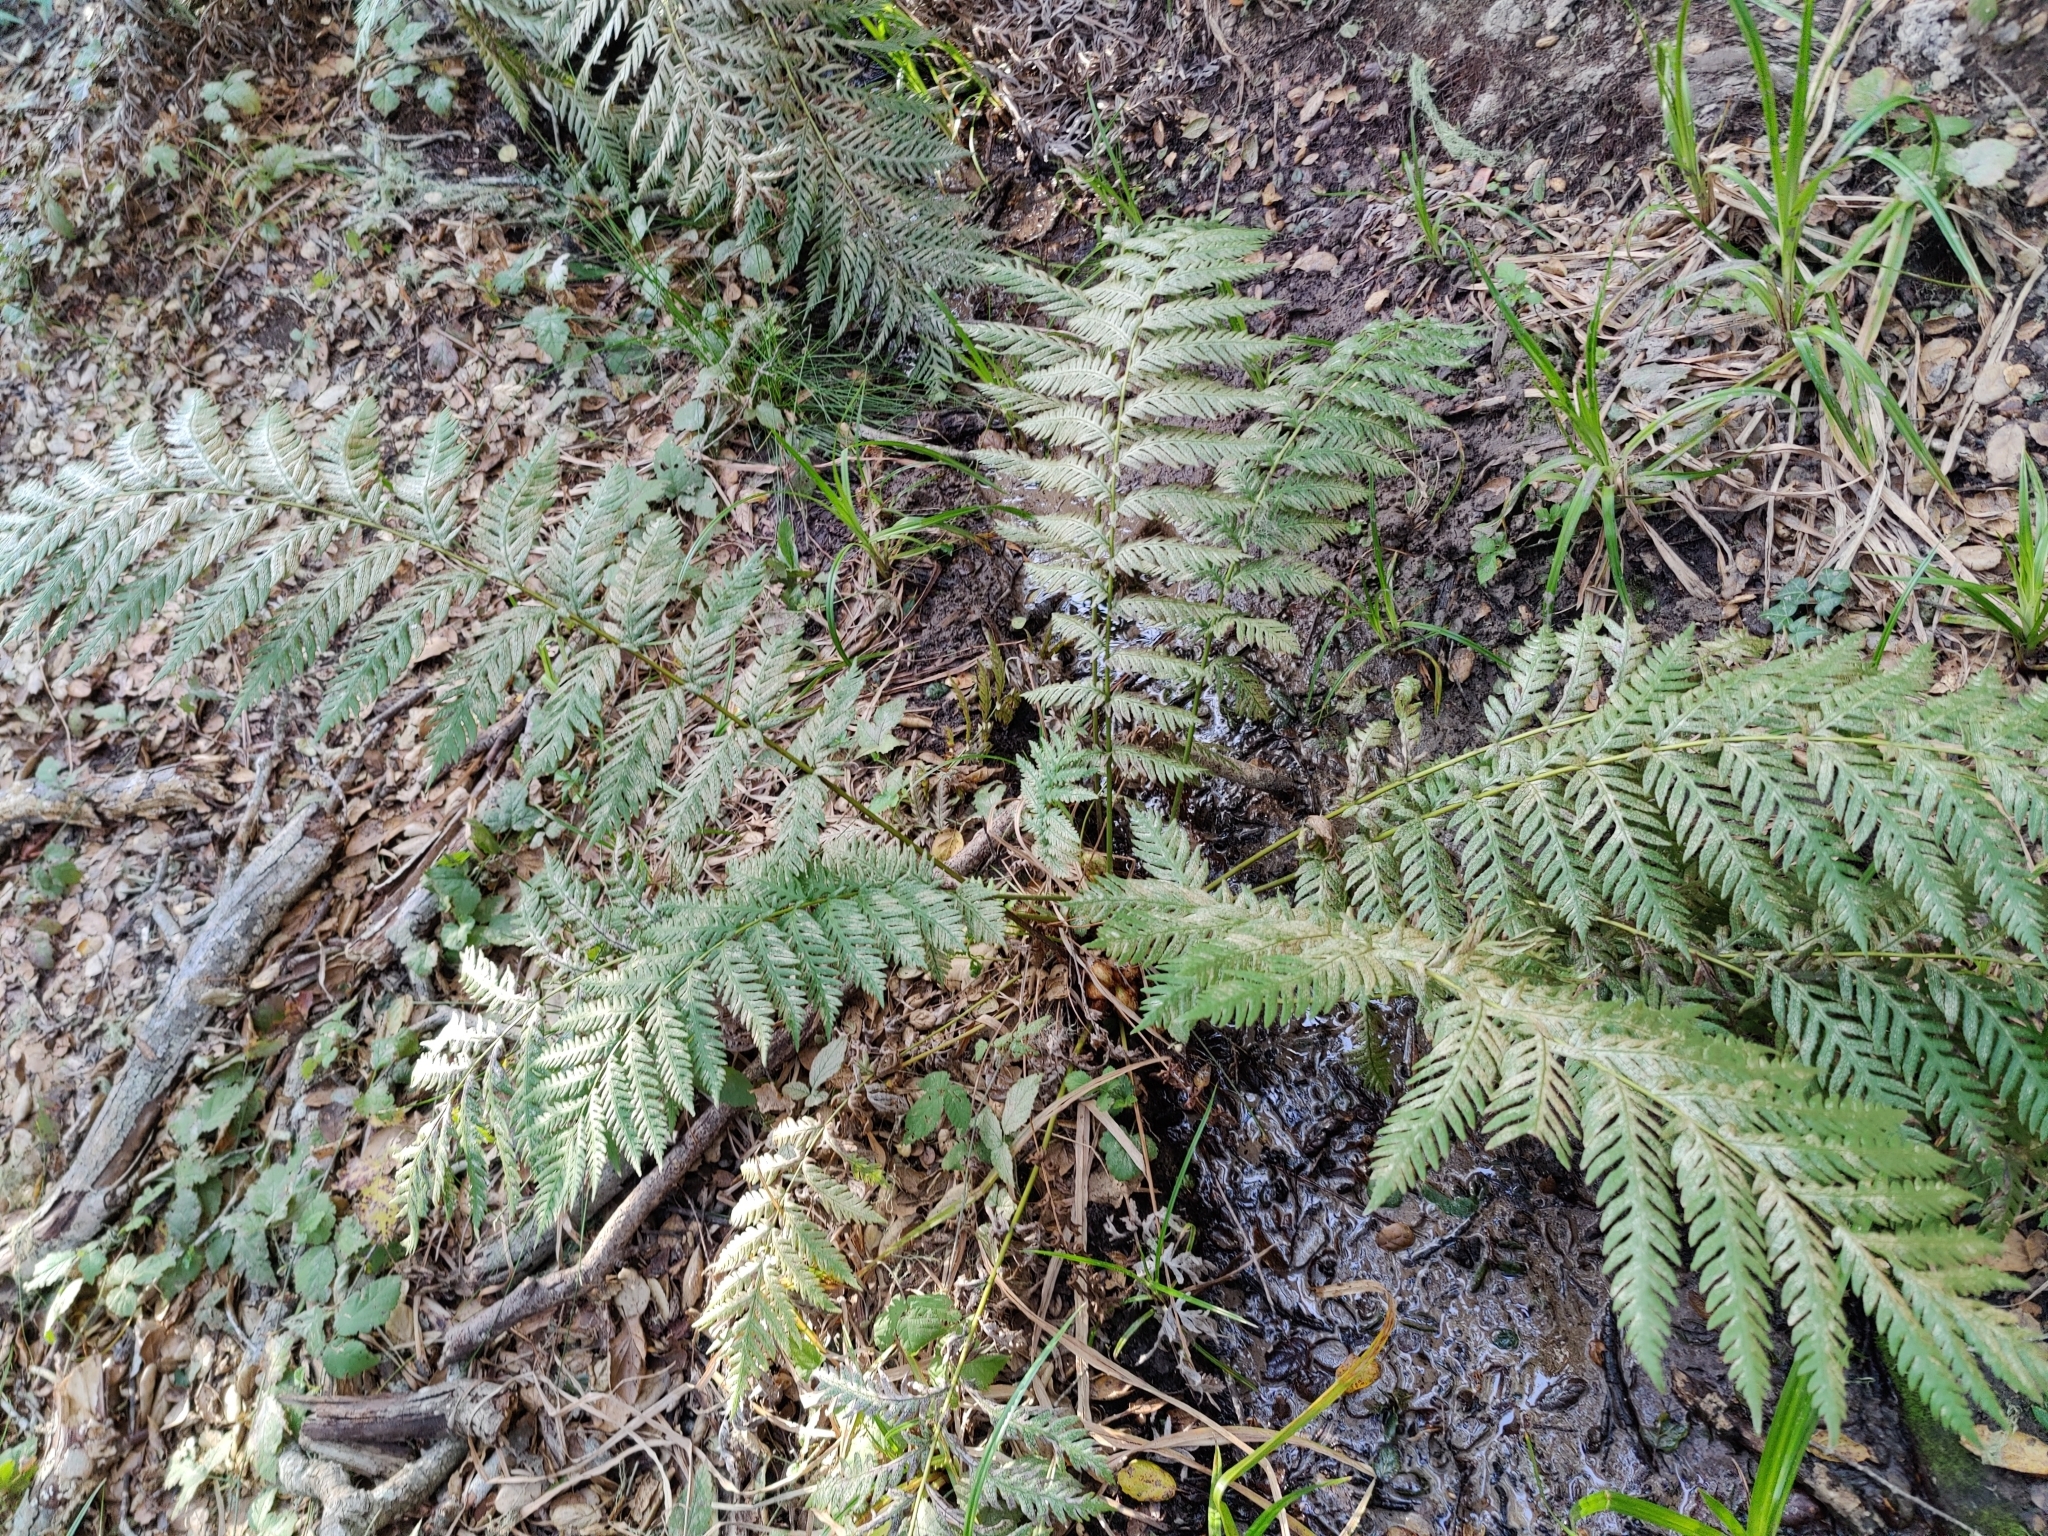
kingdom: Plantae
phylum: Tracheophyta
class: Polypodiopsida
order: Polypodiales
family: Blechnaceae
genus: Woodwardia
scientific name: Woodwardia fimbriata
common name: Giant chain fern
